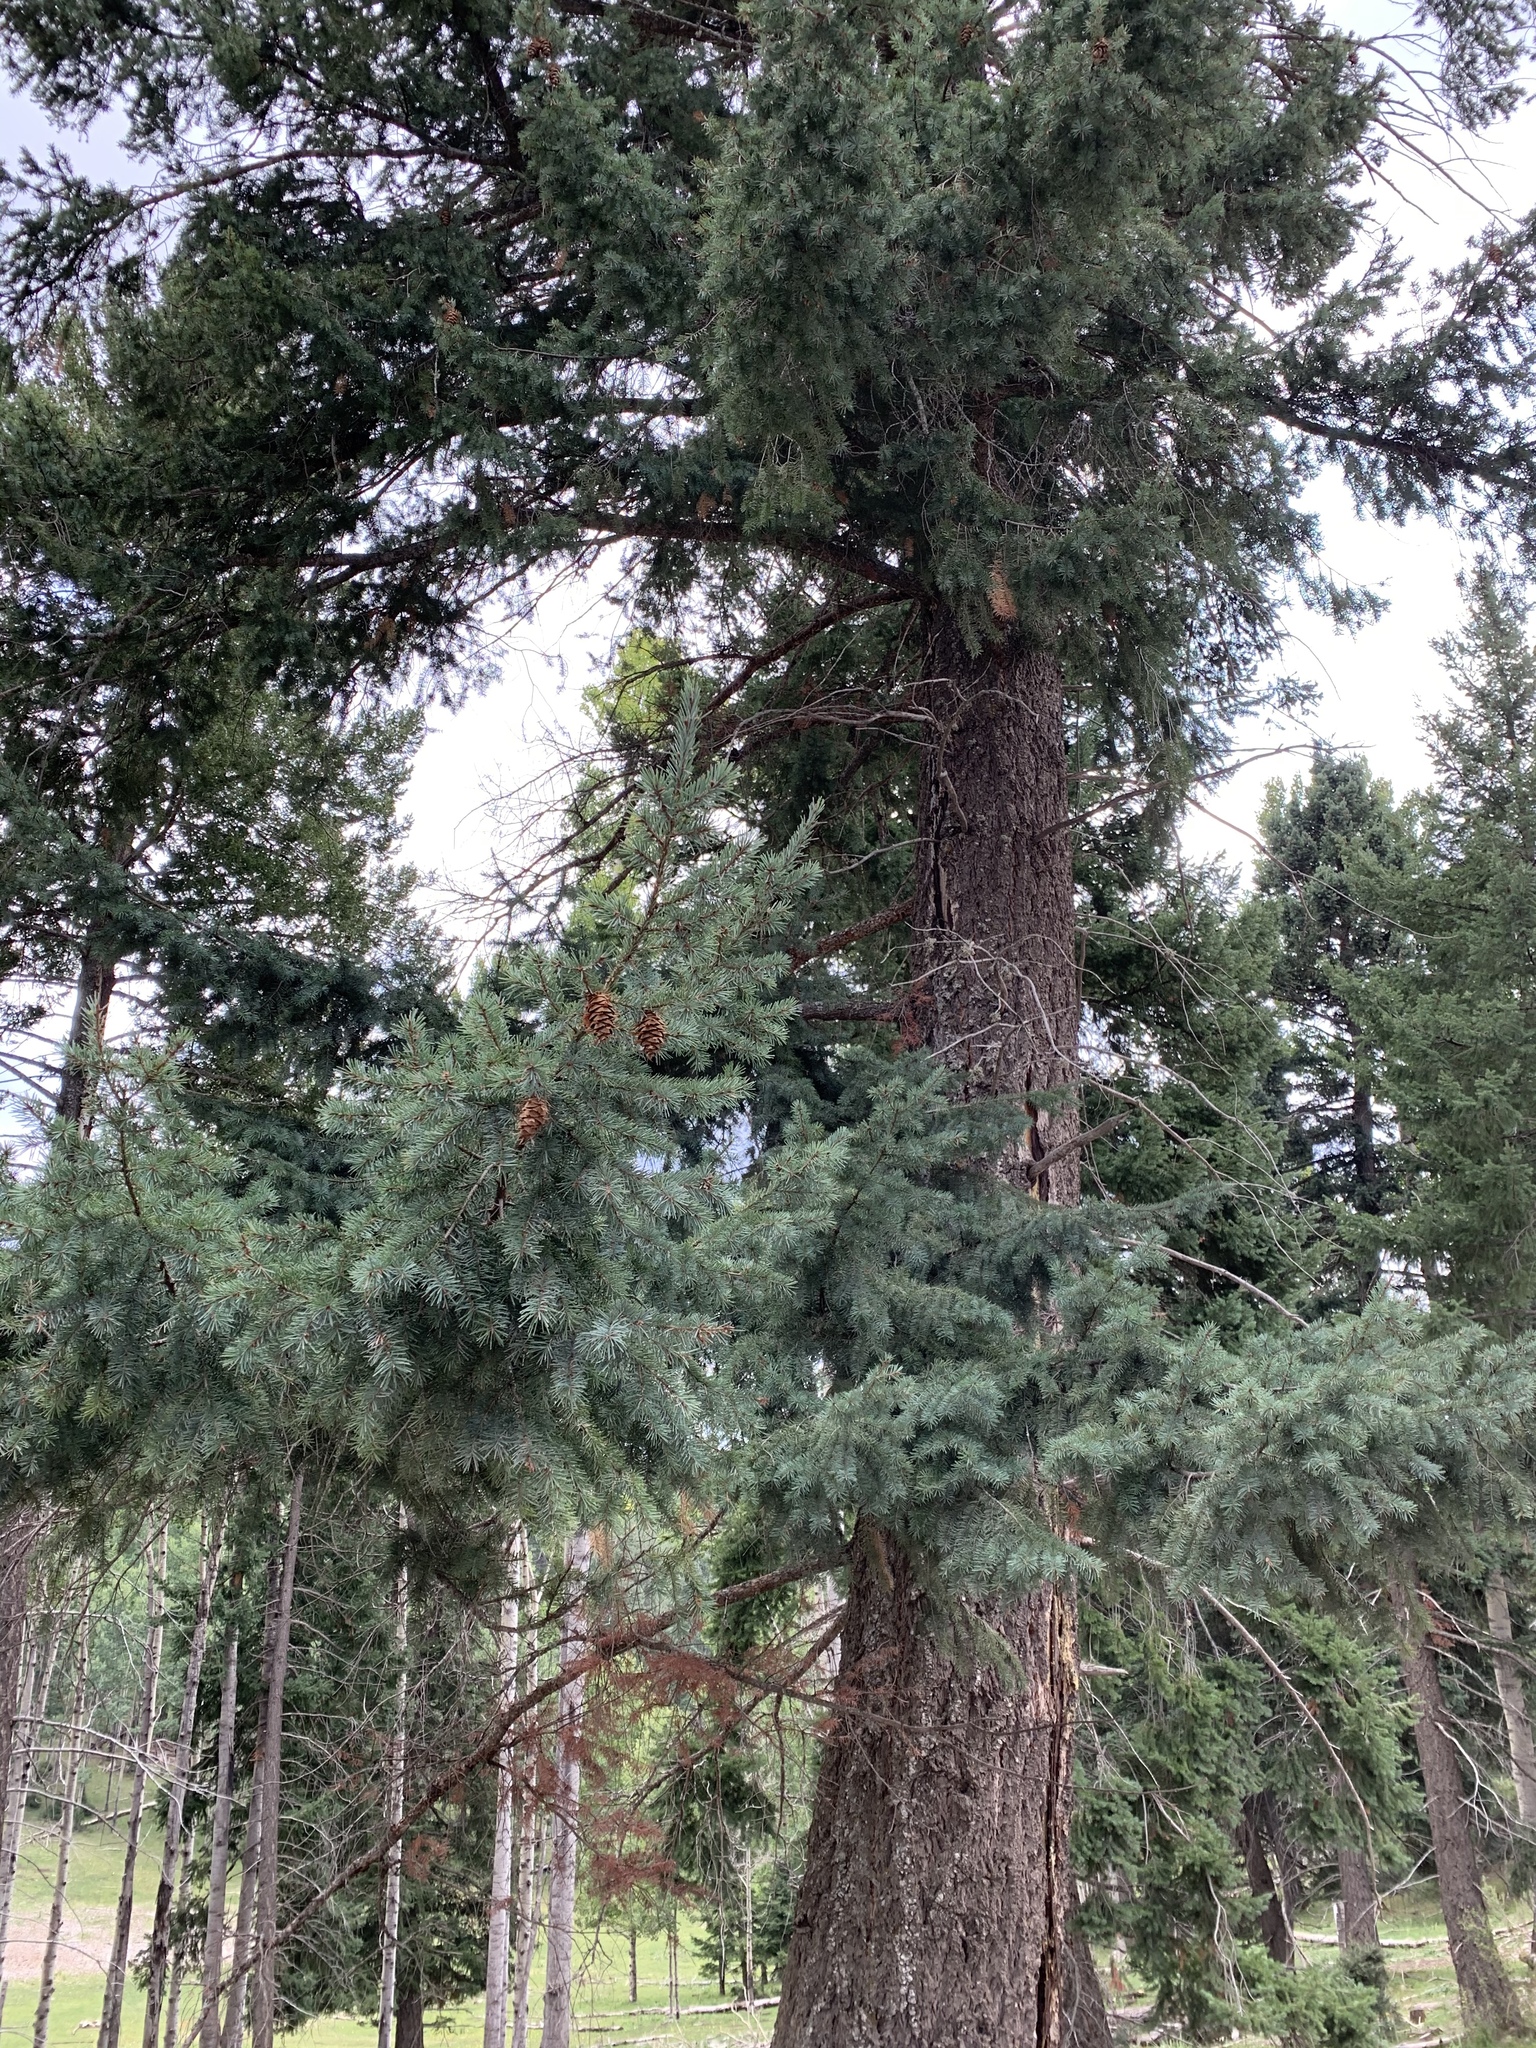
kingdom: Plantae
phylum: Tracheophyta
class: Pinopsida
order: Pinales
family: Pinaceae
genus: Pseudotsuga
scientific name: Pseudotsuga menziesii
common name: Douglas fir
